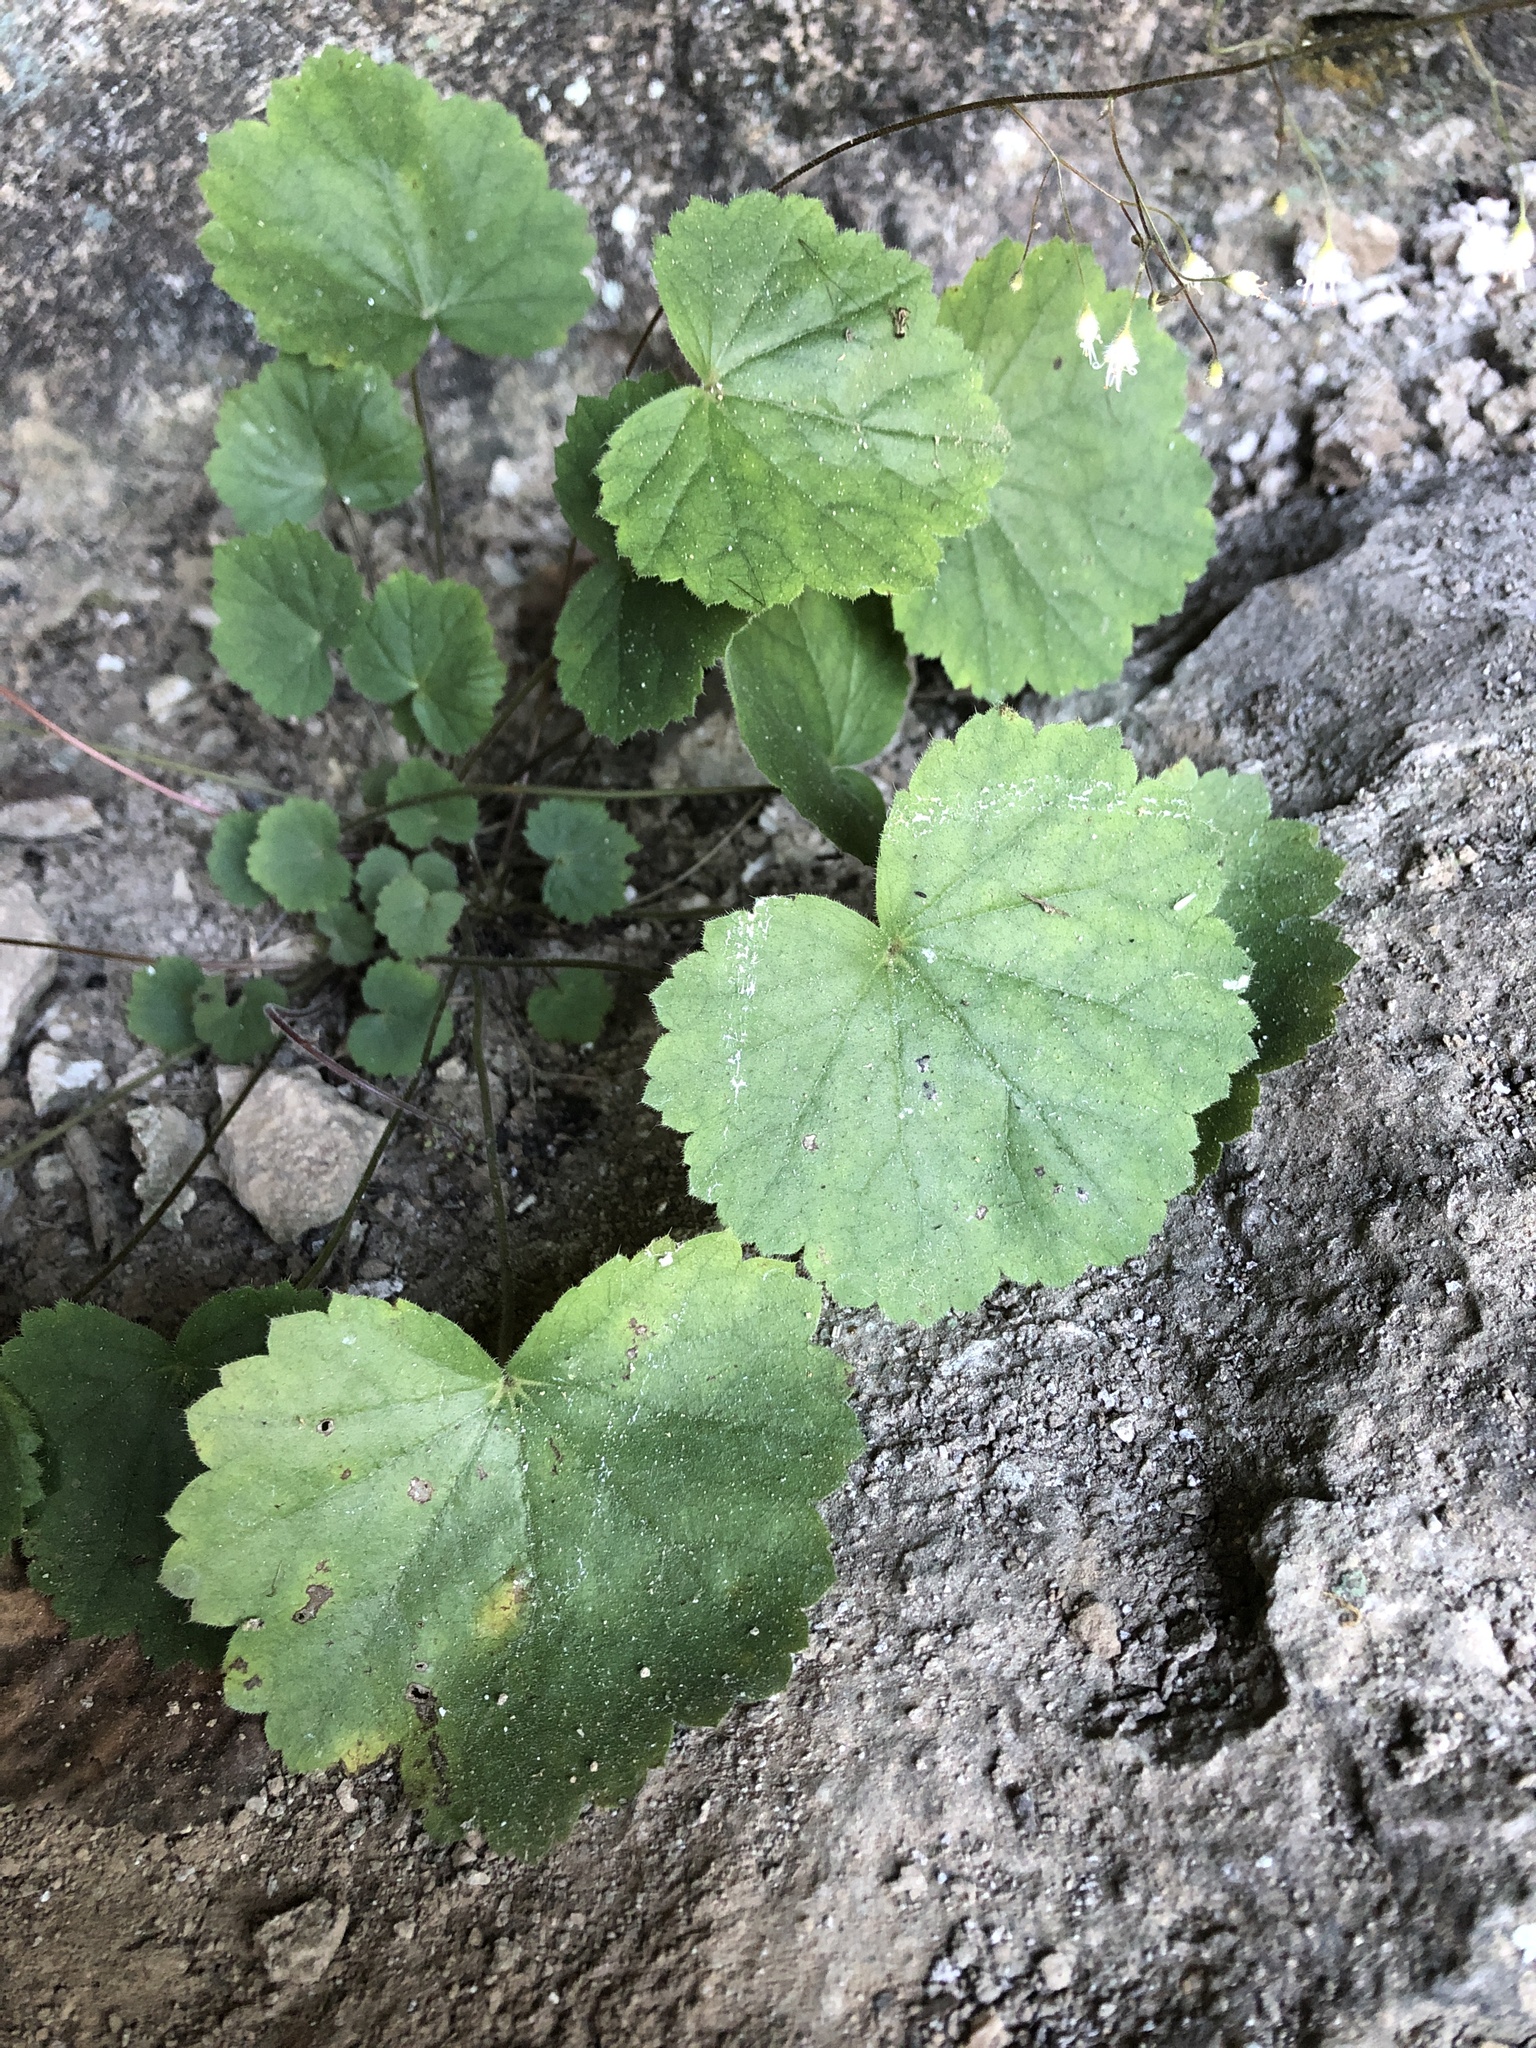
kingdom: Plantae
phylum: Tracheophyta
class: Magnoliopsida
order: Saxifragales
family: Saxifragaceae
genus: Heuchera
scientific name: Heuchera puberula
